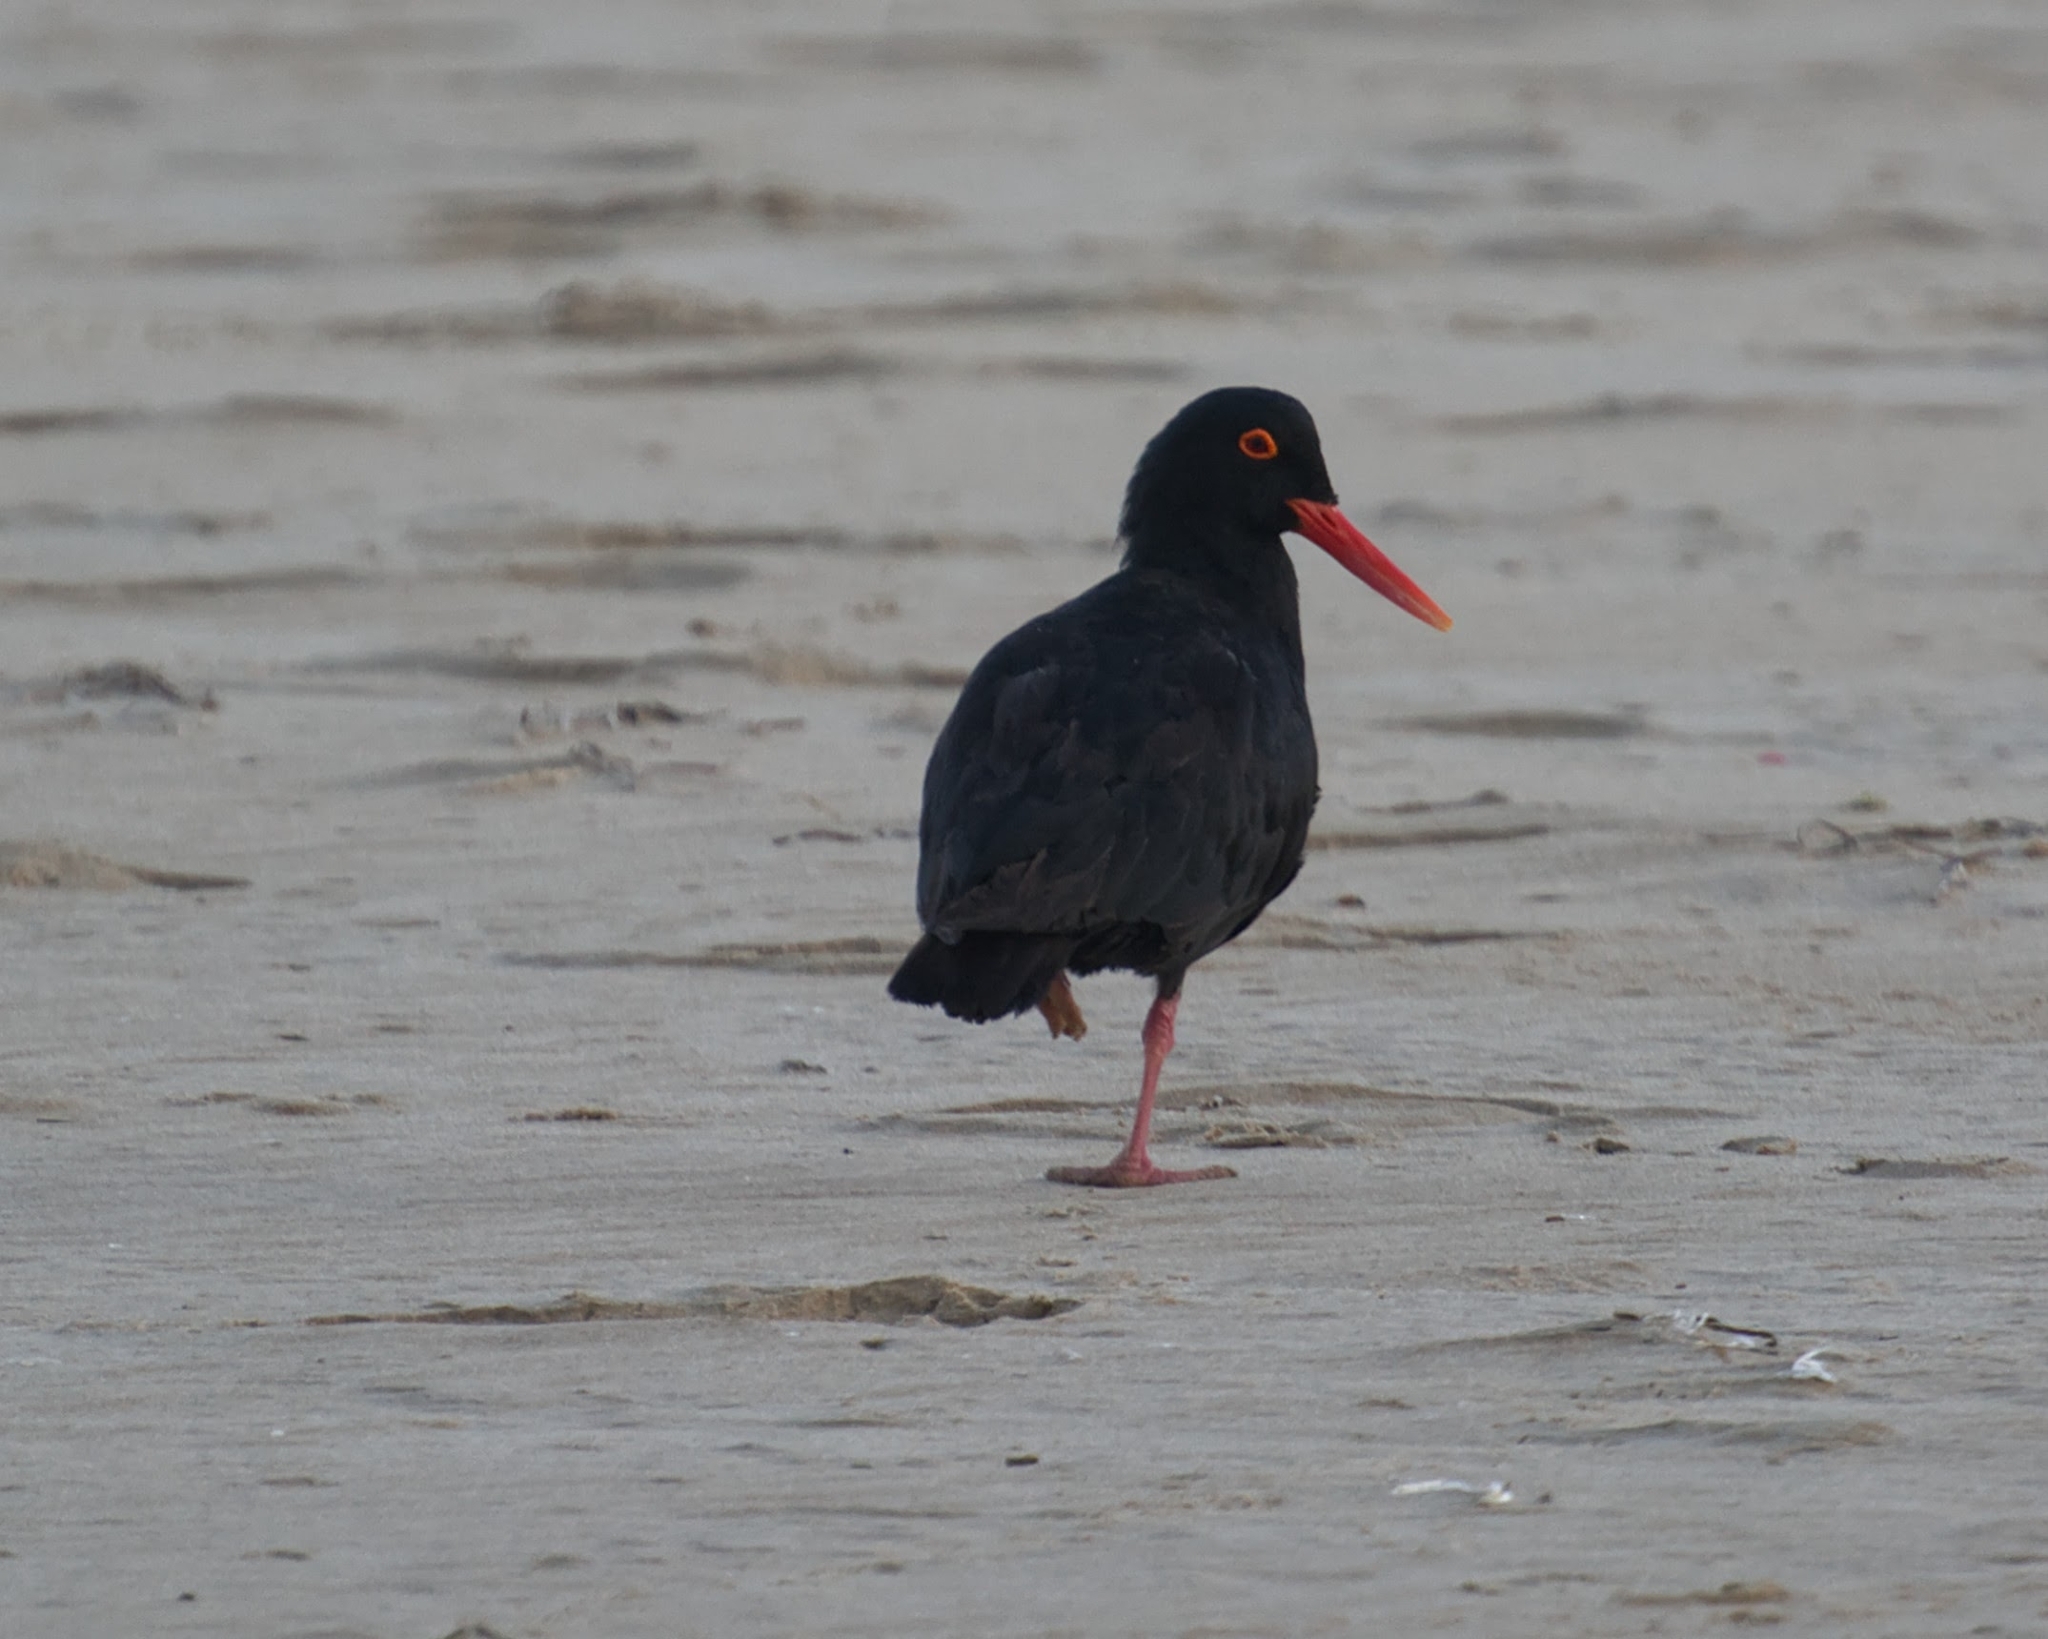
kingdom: Animalia
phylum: Chordata
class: Aves
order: Charadriiformes
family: Haematopodidae
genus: Haematopus
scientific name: Haematopus moquini
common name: African oystercatcher
